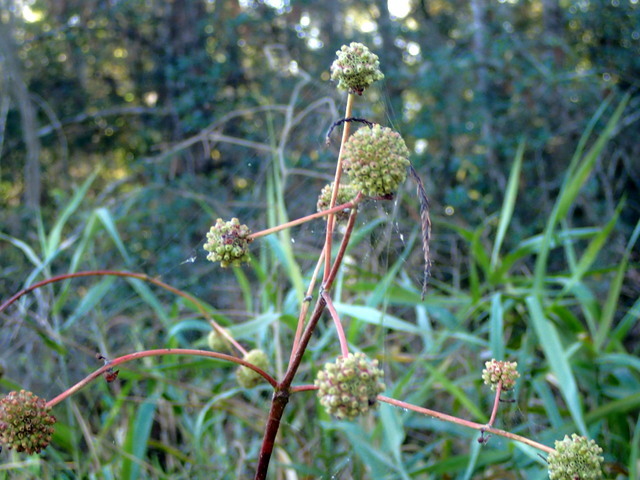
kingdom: Plantae
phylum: Tracheophyta
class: Magnoliopsida
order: Gentianales
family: Rubiaceae
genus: Cephalanthus
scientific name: Cephalanthus occidentalis
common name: Button-willow
